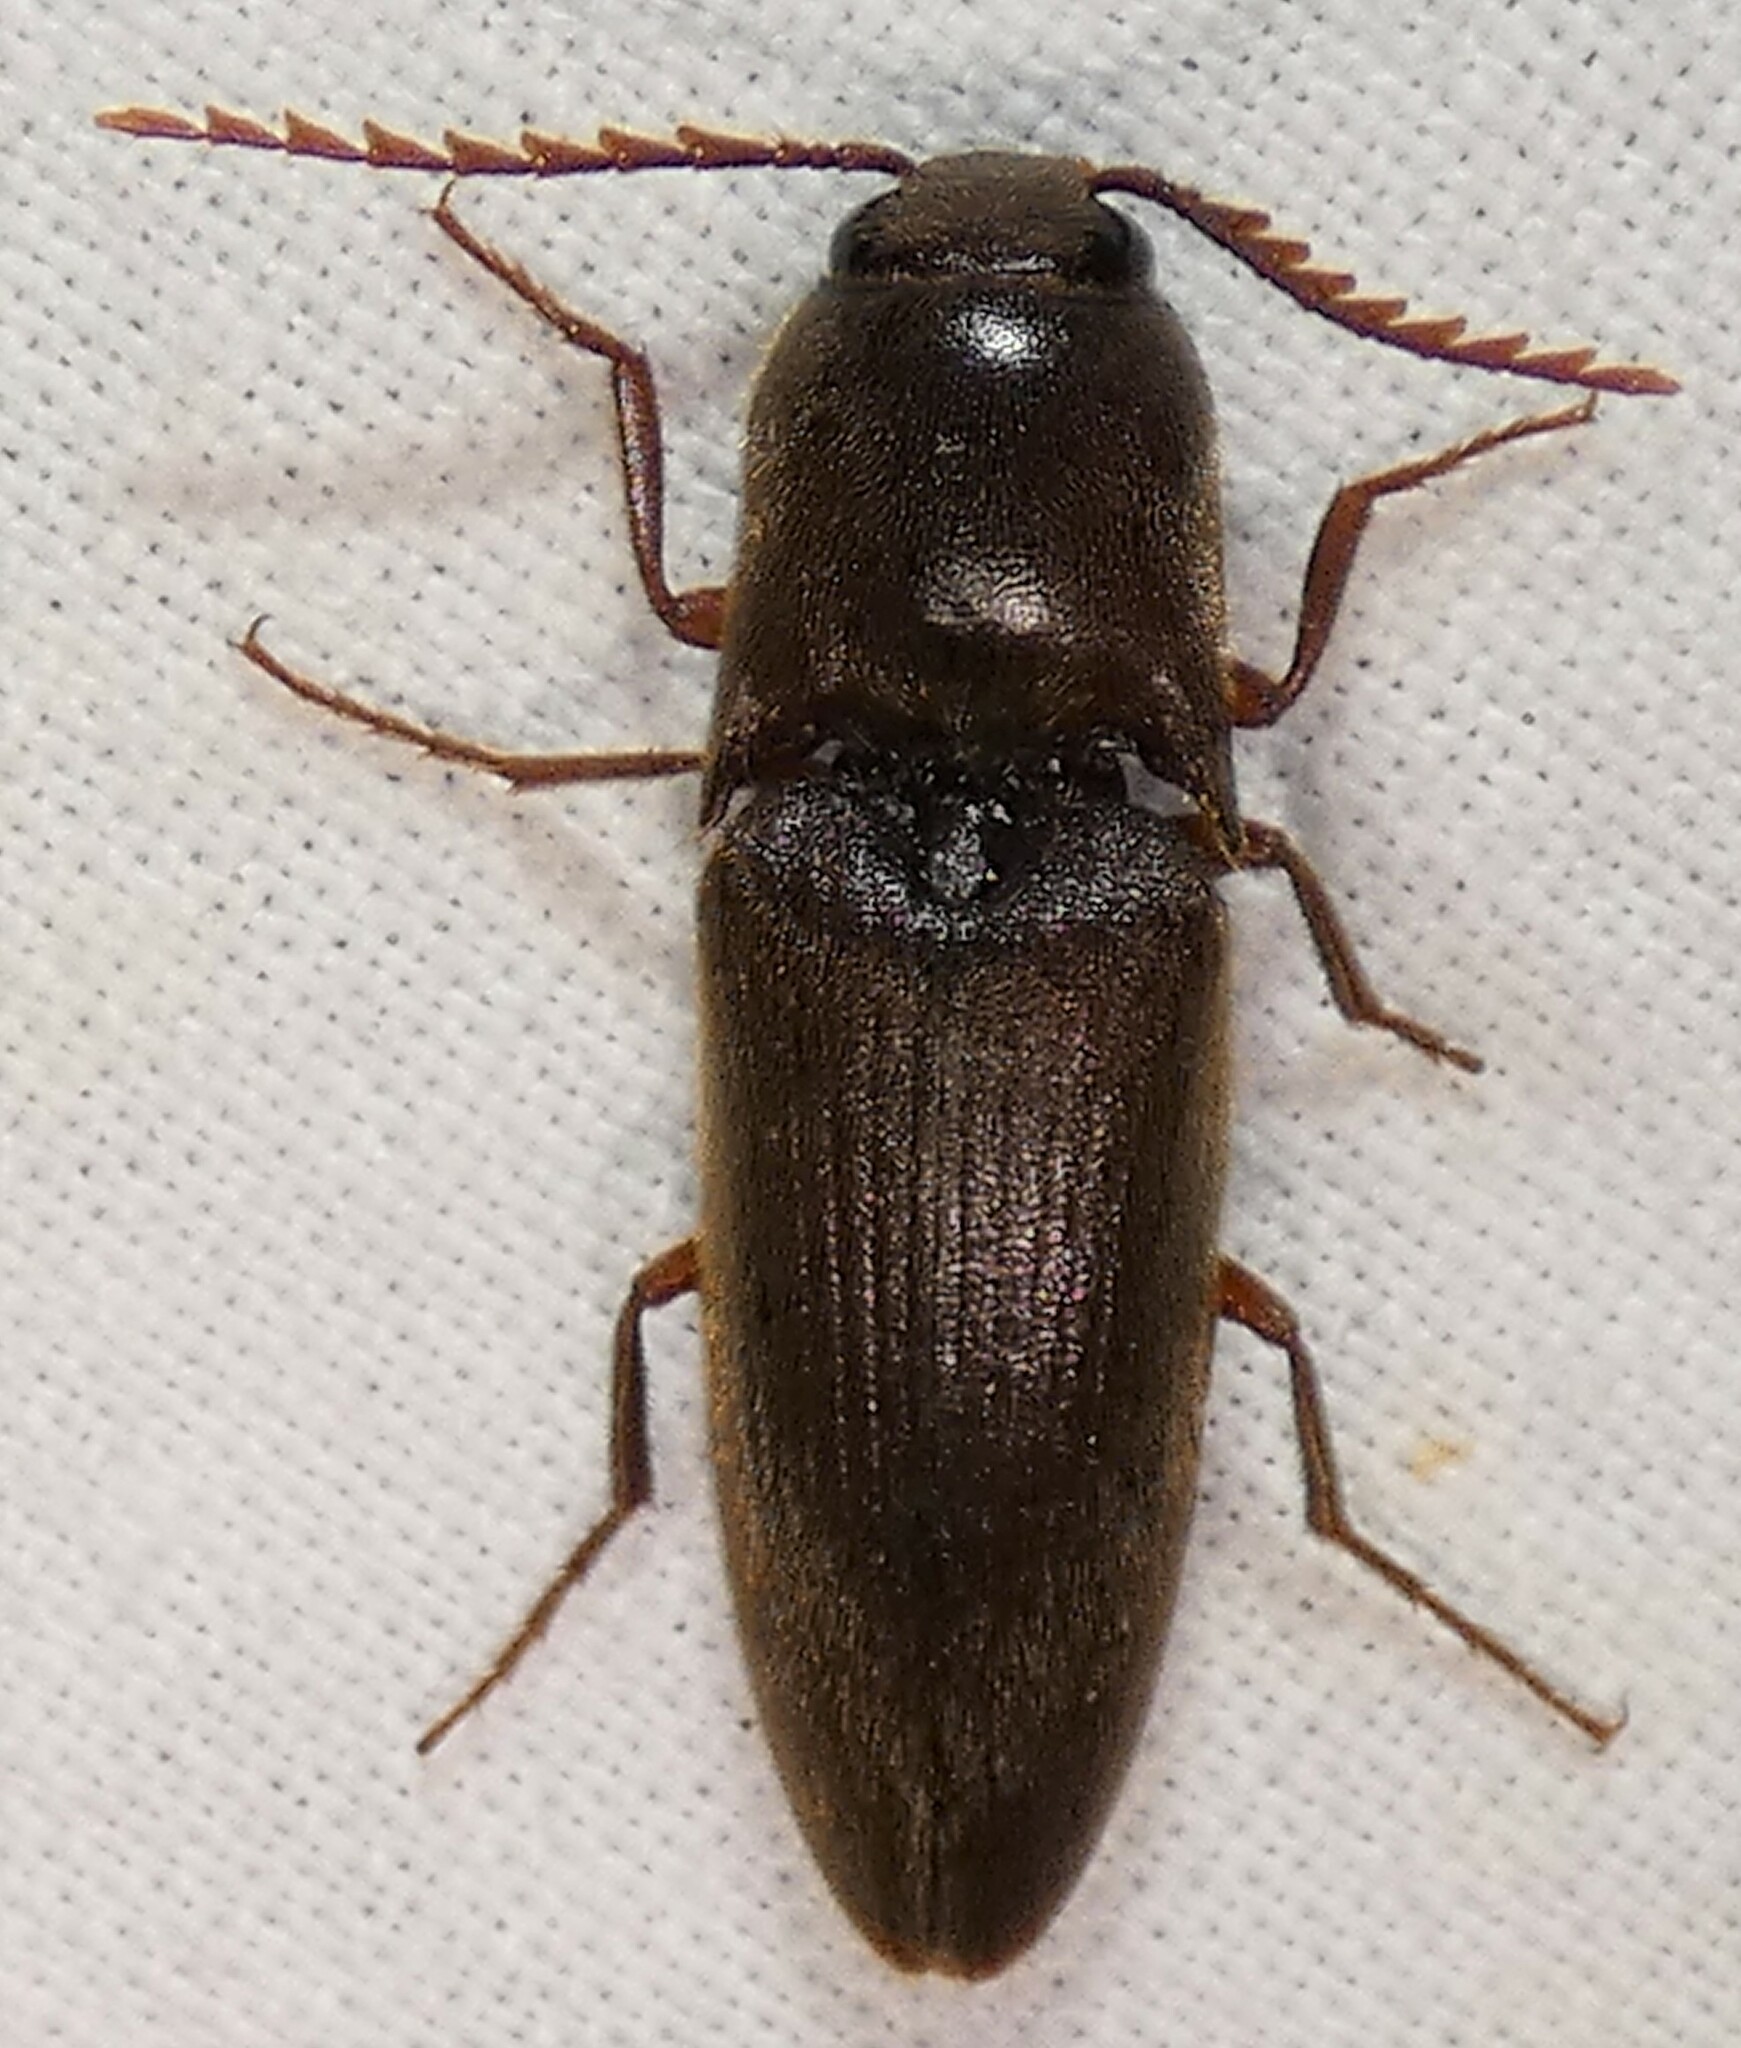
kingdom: Animalia
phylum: Arthropoda
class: Insecta
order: Coleoptera
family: Elateridae
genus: Diplostethus
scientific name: Diplostethus
